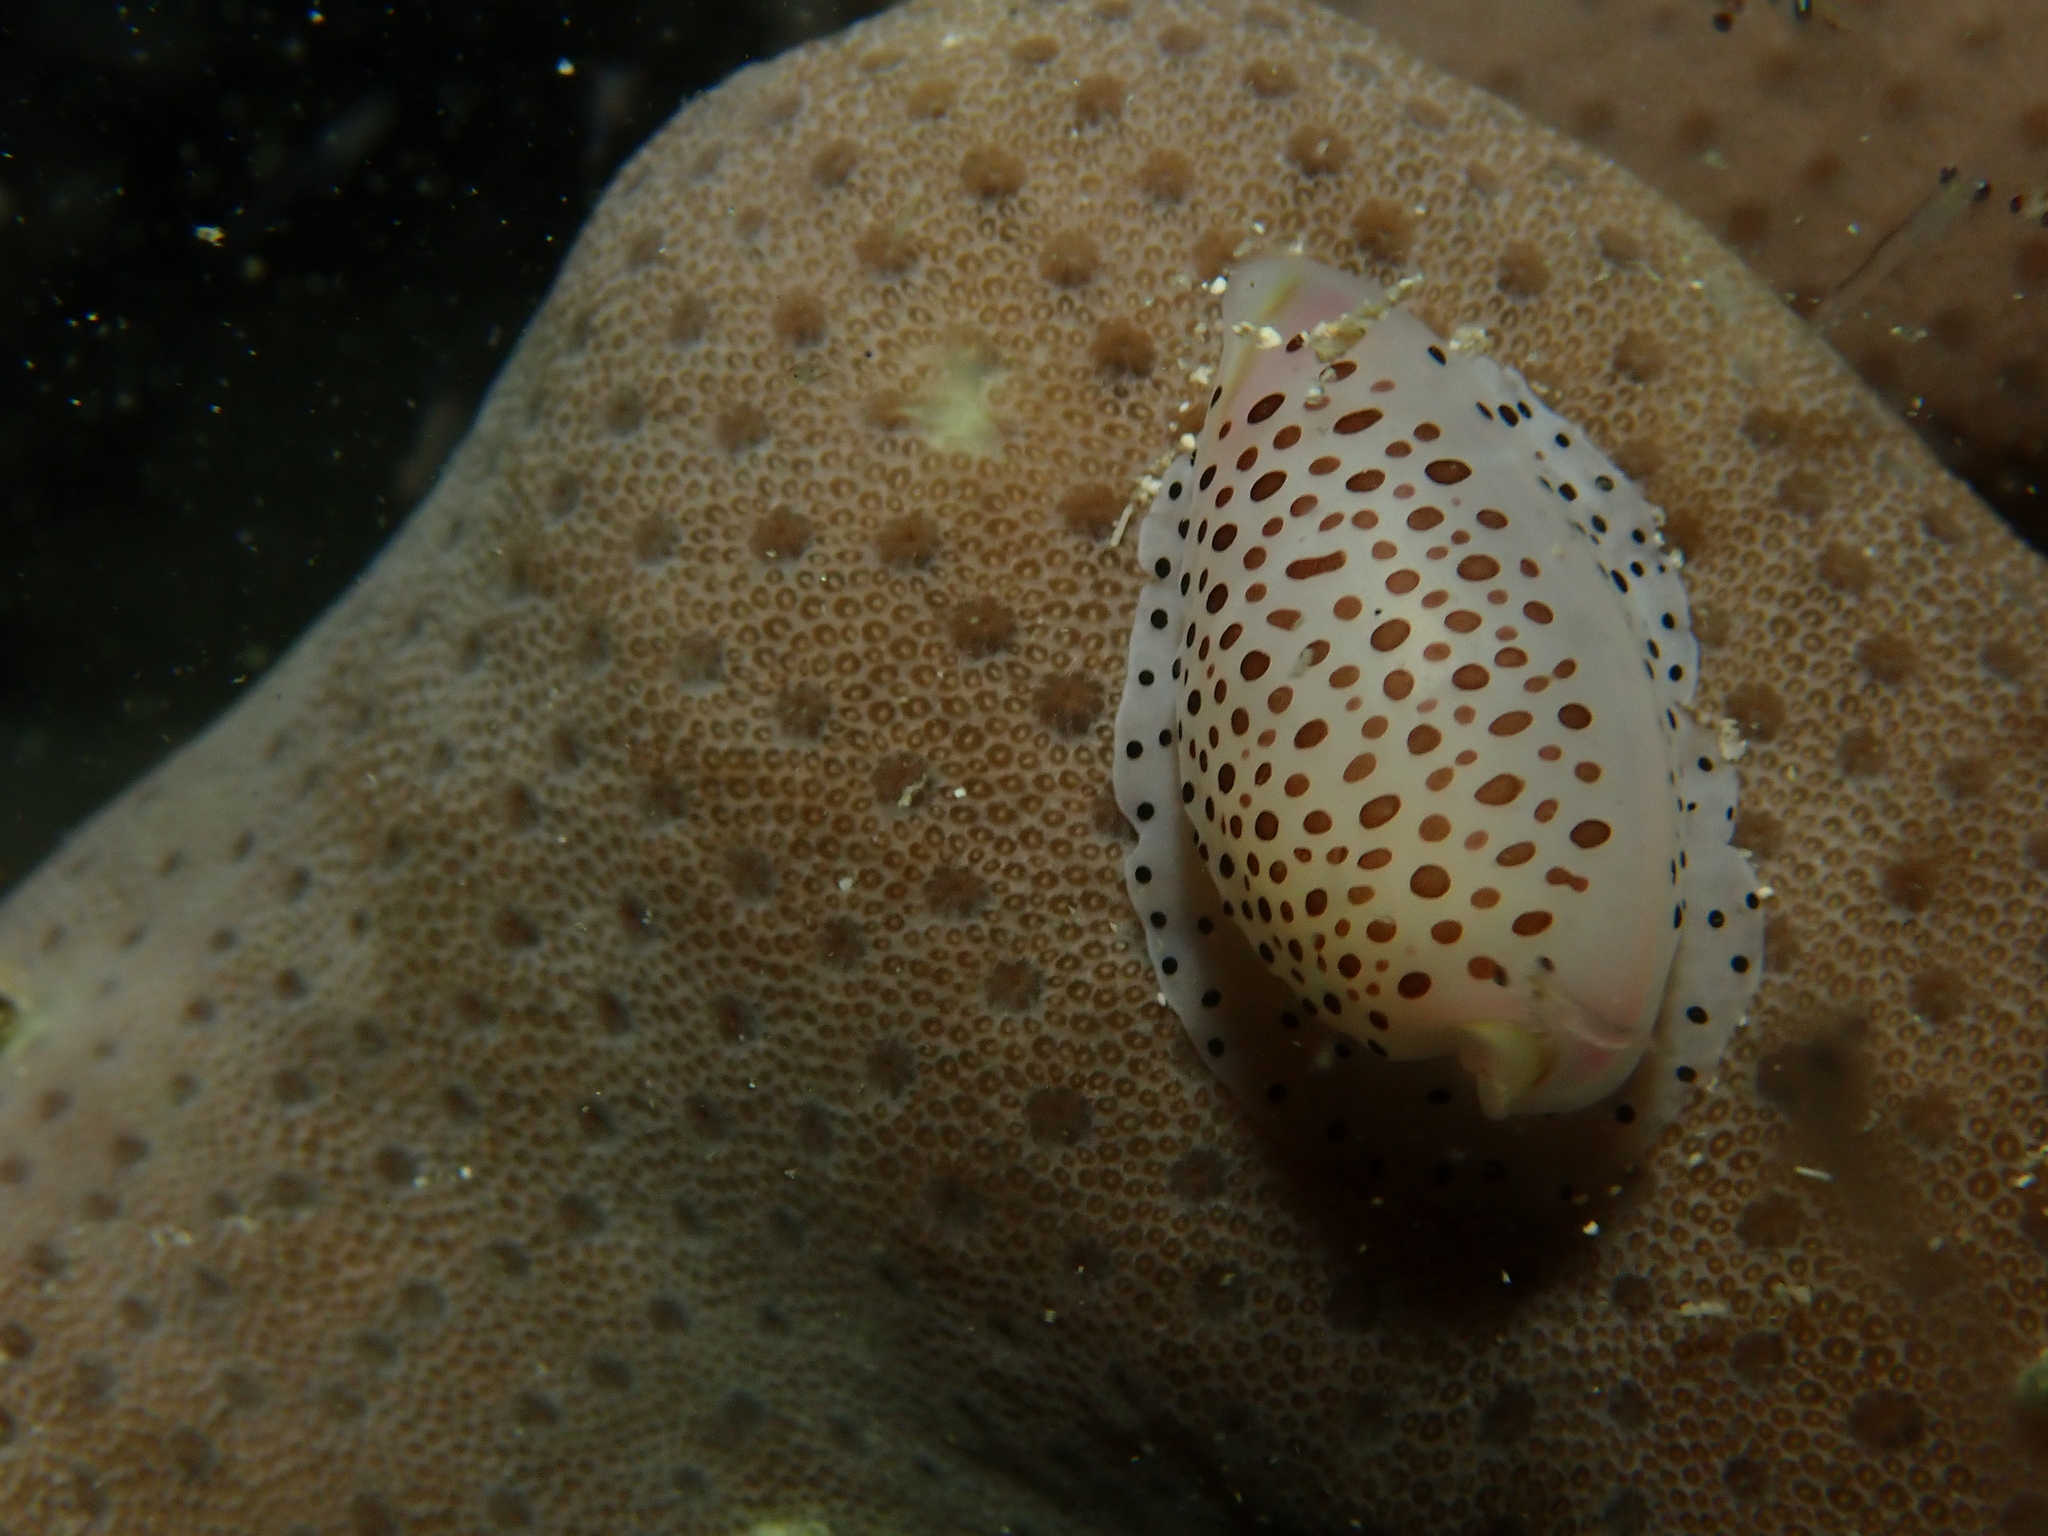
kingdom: Animalia
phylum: Mollusca
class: Gastropoda
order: Littorinimorpha
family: Ovulidae
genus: Calpurnus
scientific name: Calpurnus verrucosus
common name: Common calpurnus
